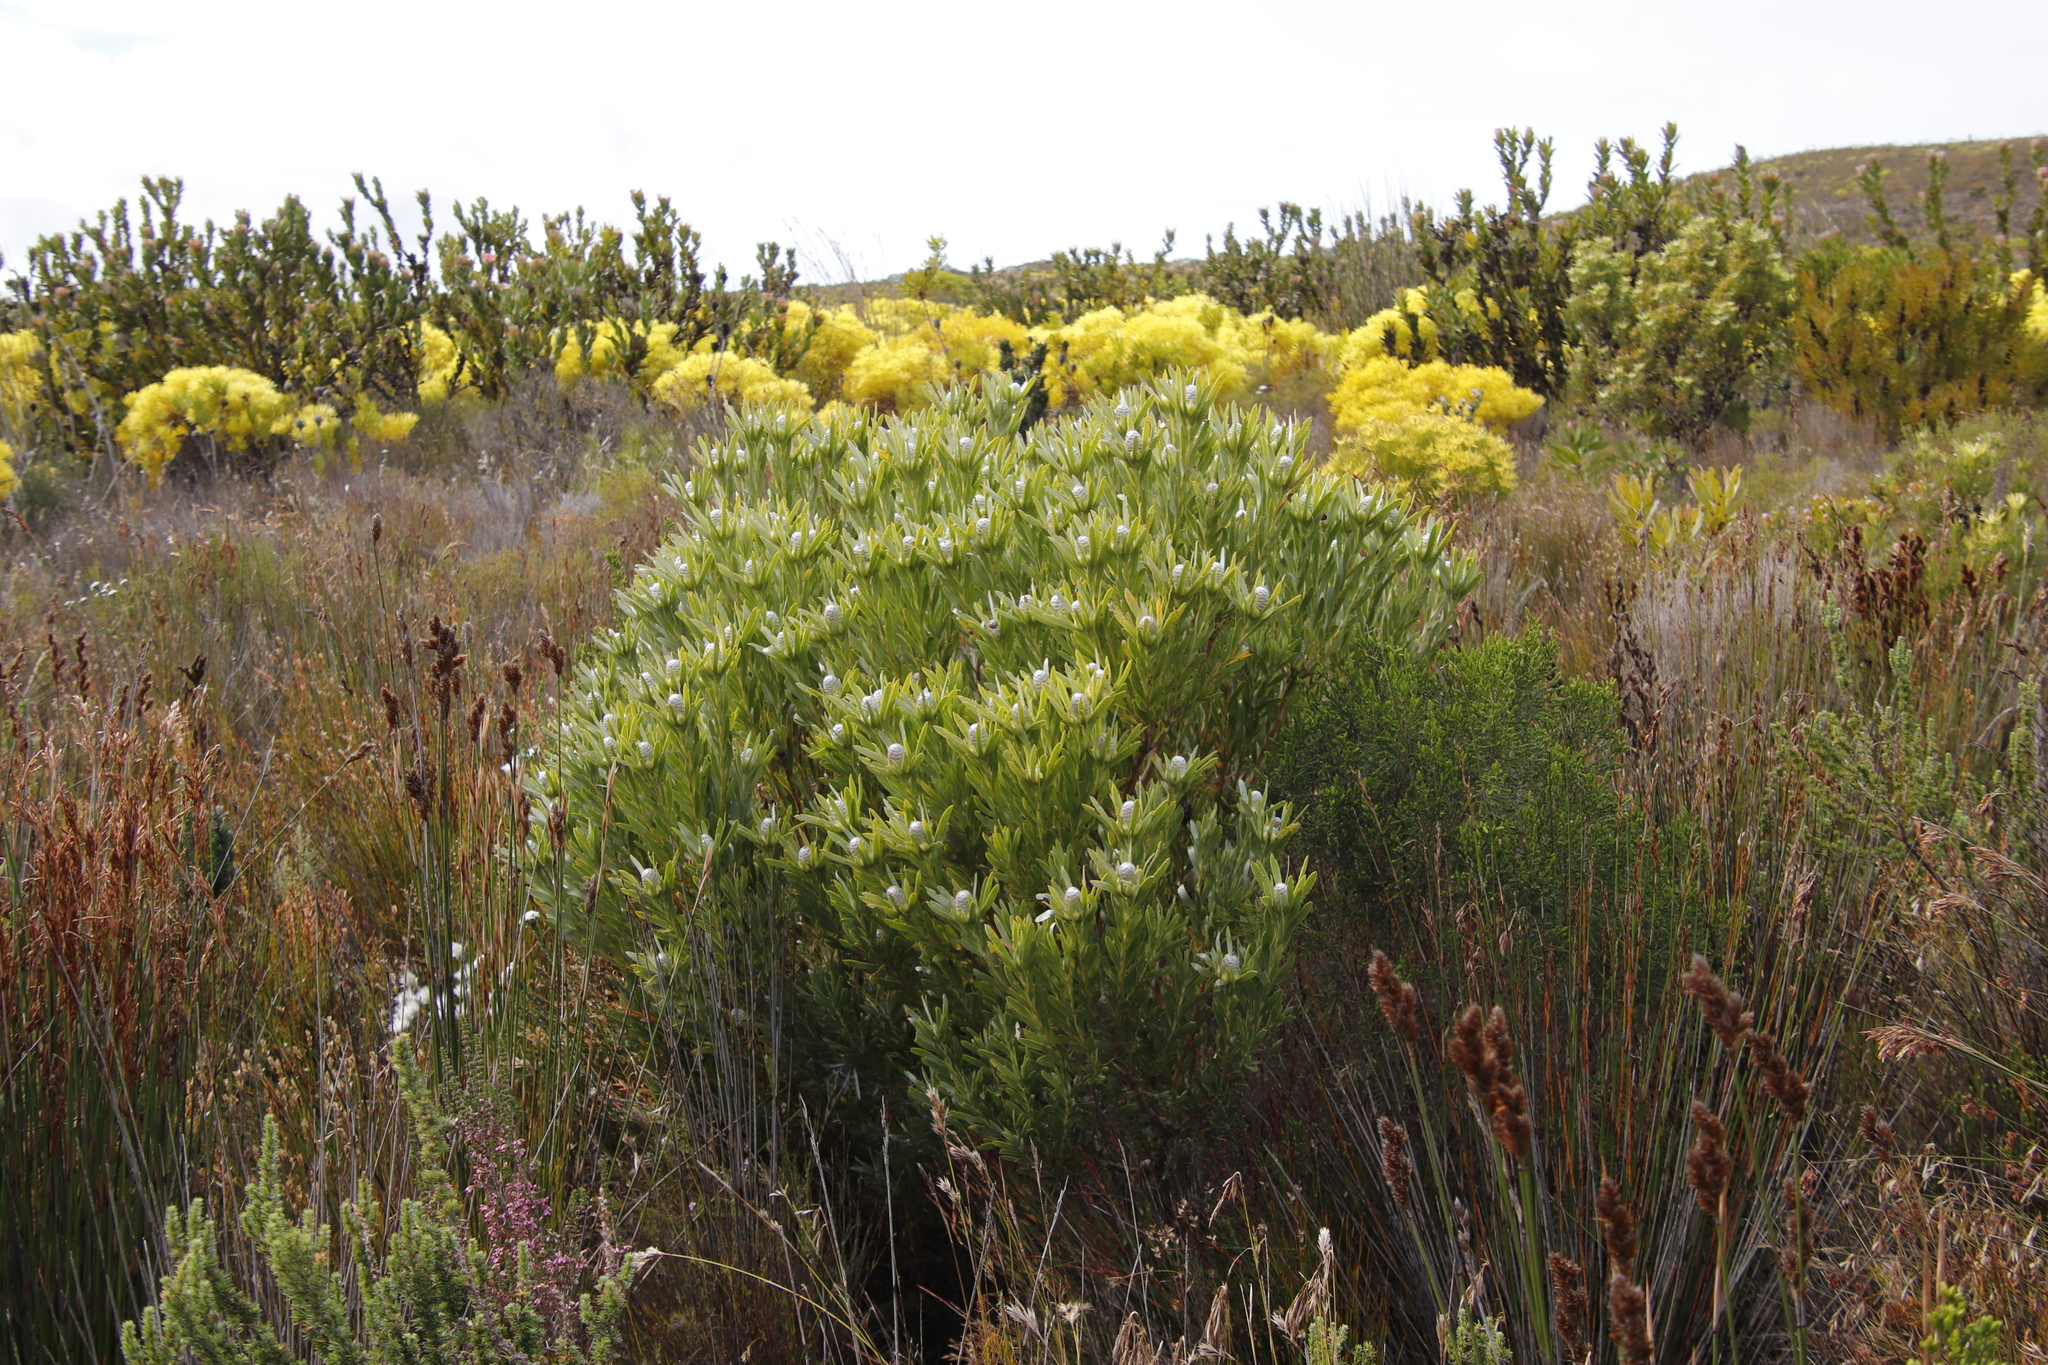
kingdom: Plantae
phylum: Tracheophyta
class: Magnoliopsida
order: Proteales
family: Proteaceae
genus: Leucadendron
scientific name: Leucadendron meridianum
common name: Limestone conebush
